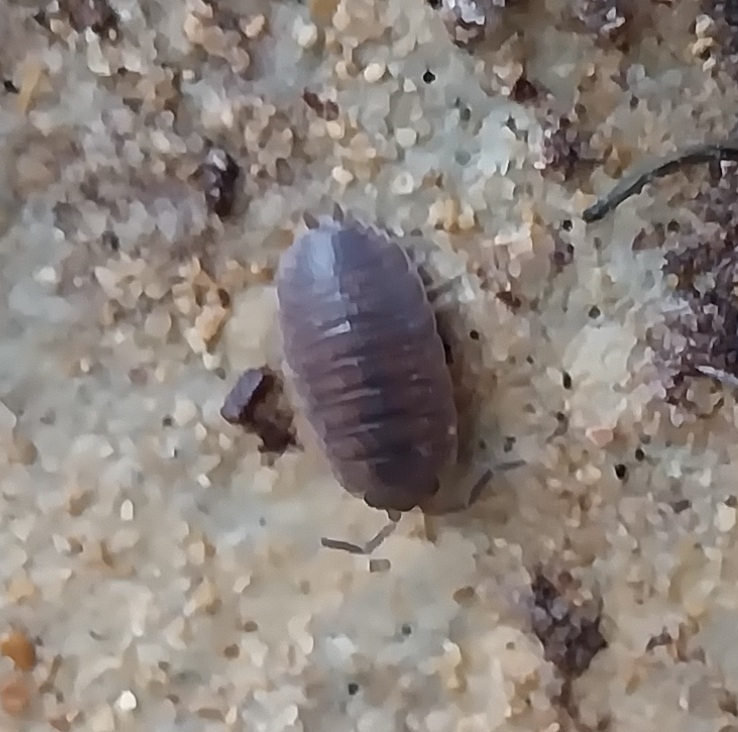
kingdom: Animalia
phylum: Arthropoda
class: Malacostraca
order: Isopoda
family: Porcellionidae
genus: Porcellio
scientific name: Porcellio scaber
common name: Common rough woodlouse
